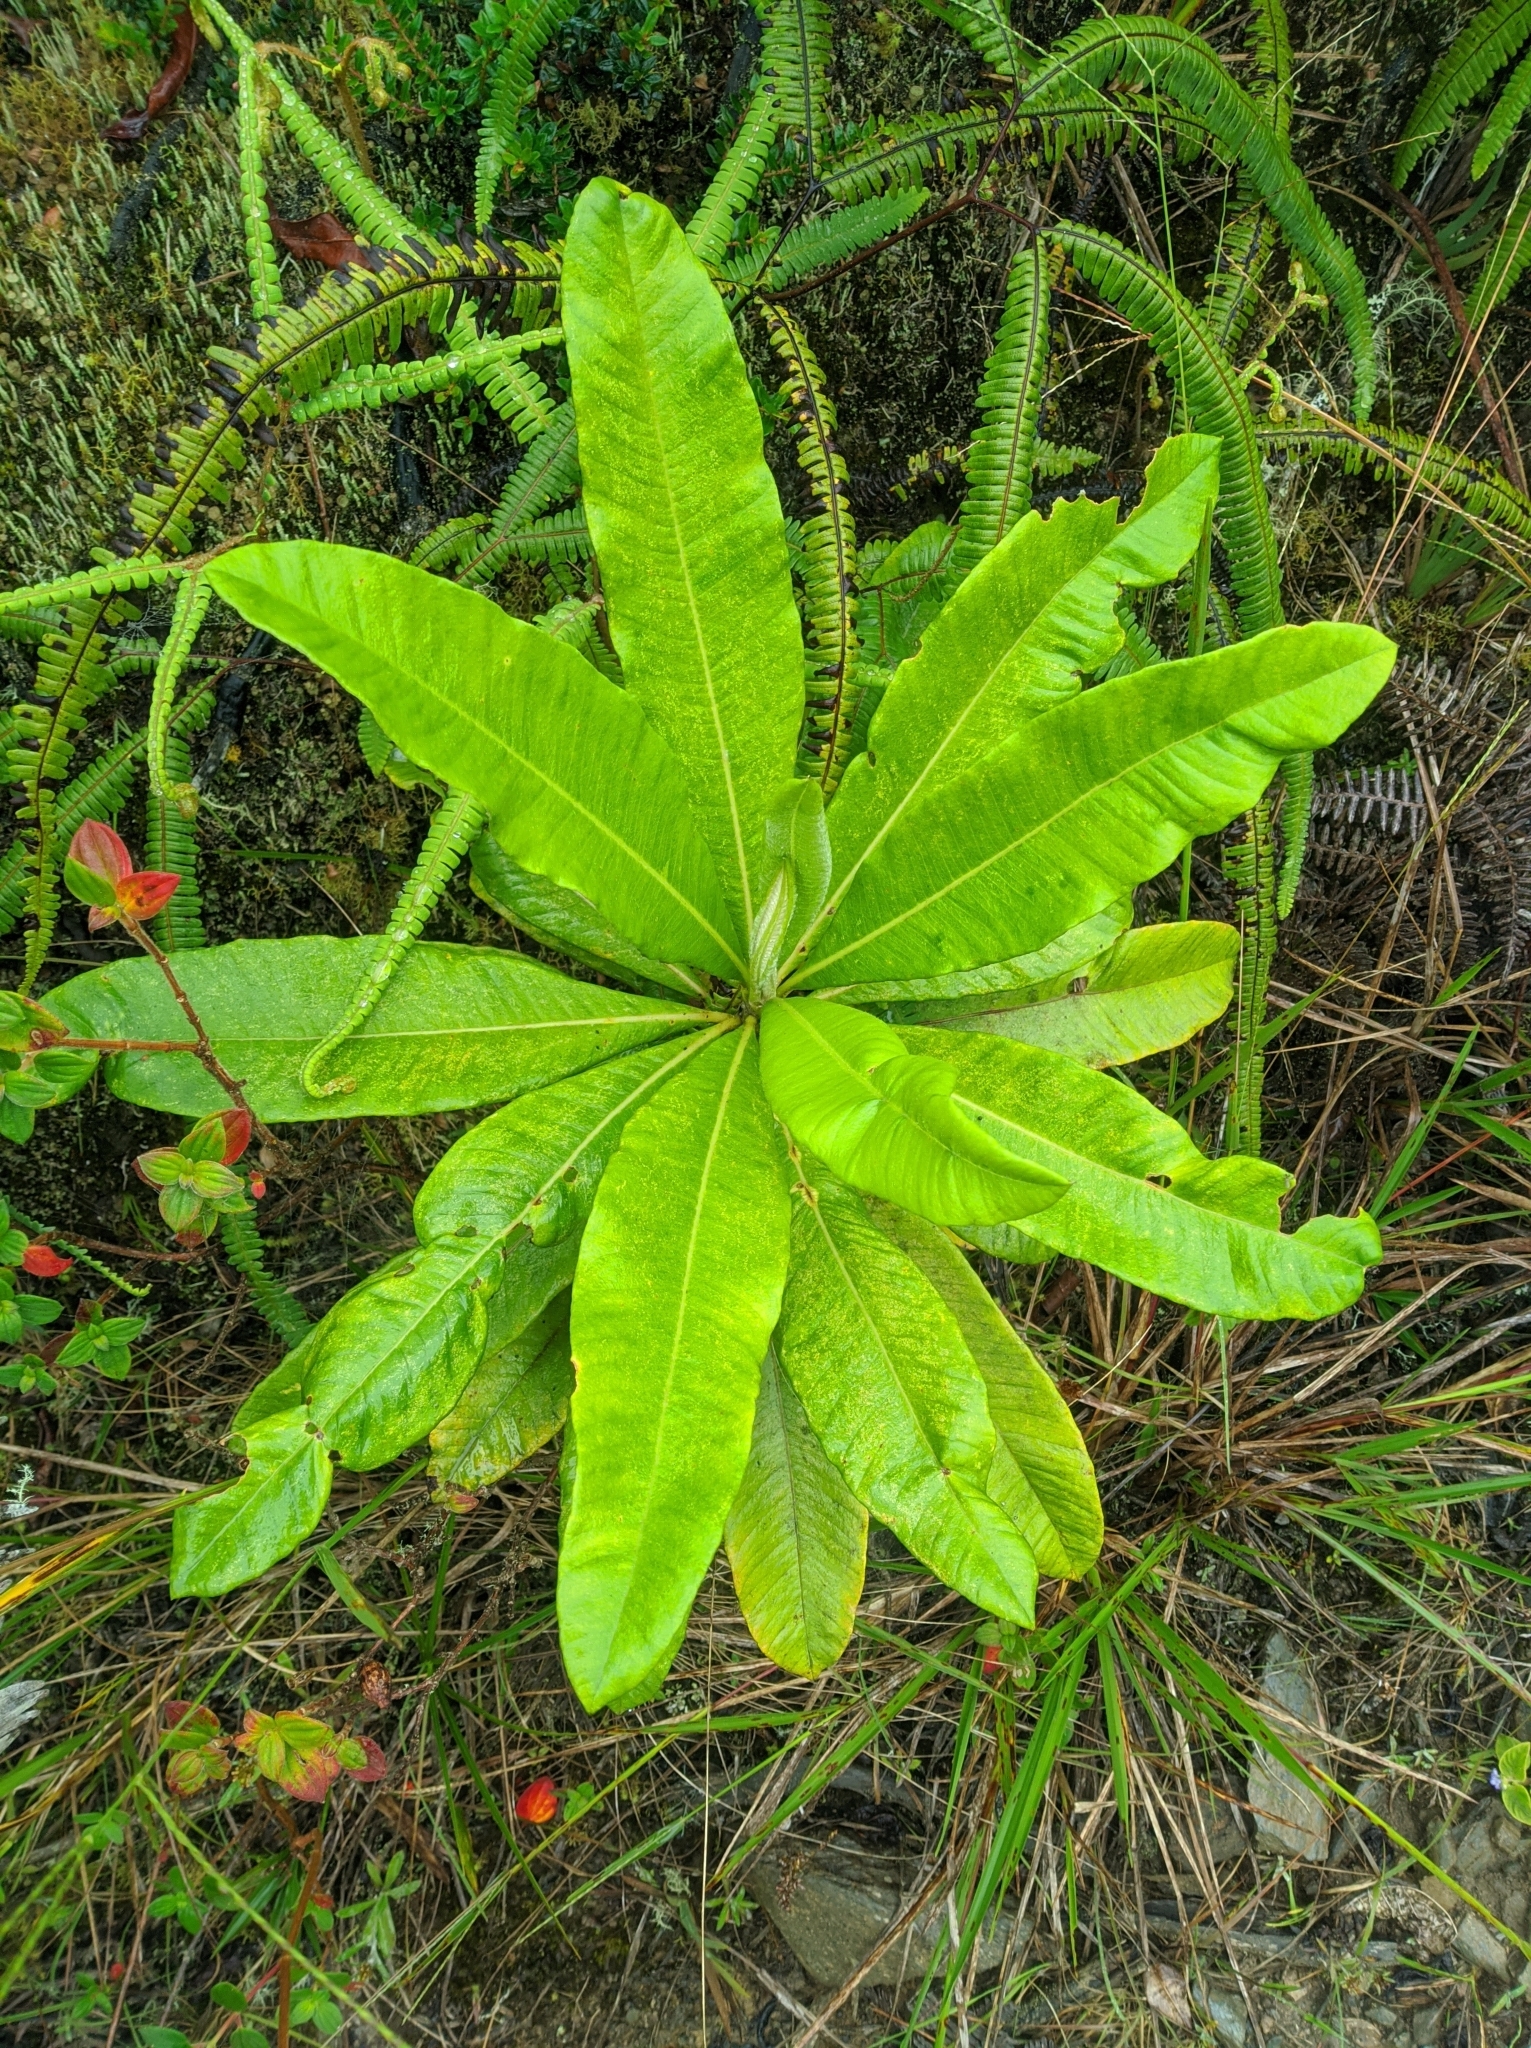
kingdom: Plantae
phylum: Tracheophyta
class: Magnoliopsida
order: Asterales
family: Asteraceae
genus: Espeletia
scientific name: Espeletia neriifolia
